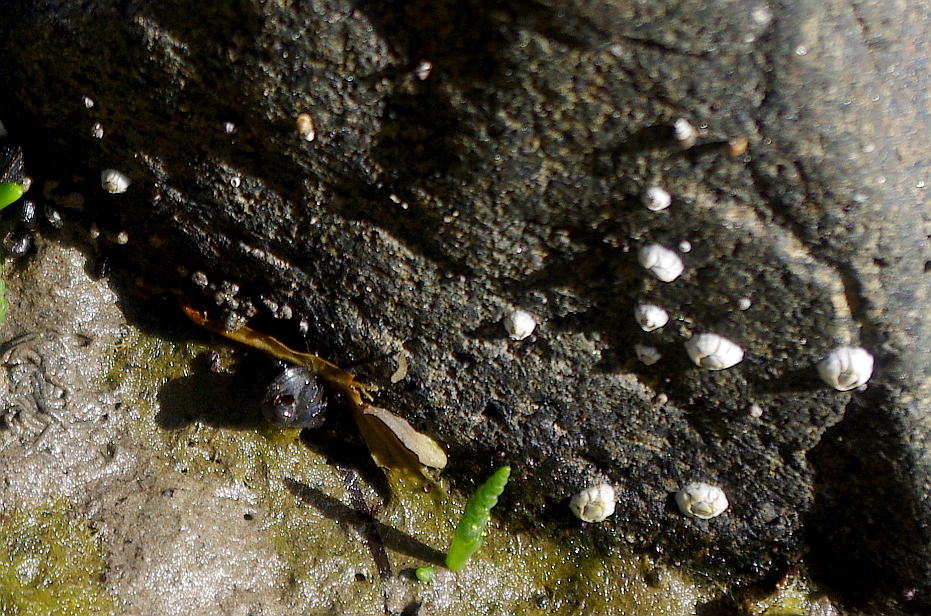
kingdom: Animalia
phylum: Arthropoda
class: Maxillopoda
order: Sessilia
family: Archaeobalanidae
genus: Semibalanus
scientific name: Semibalanus balanoides
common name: Acorn barnacle
